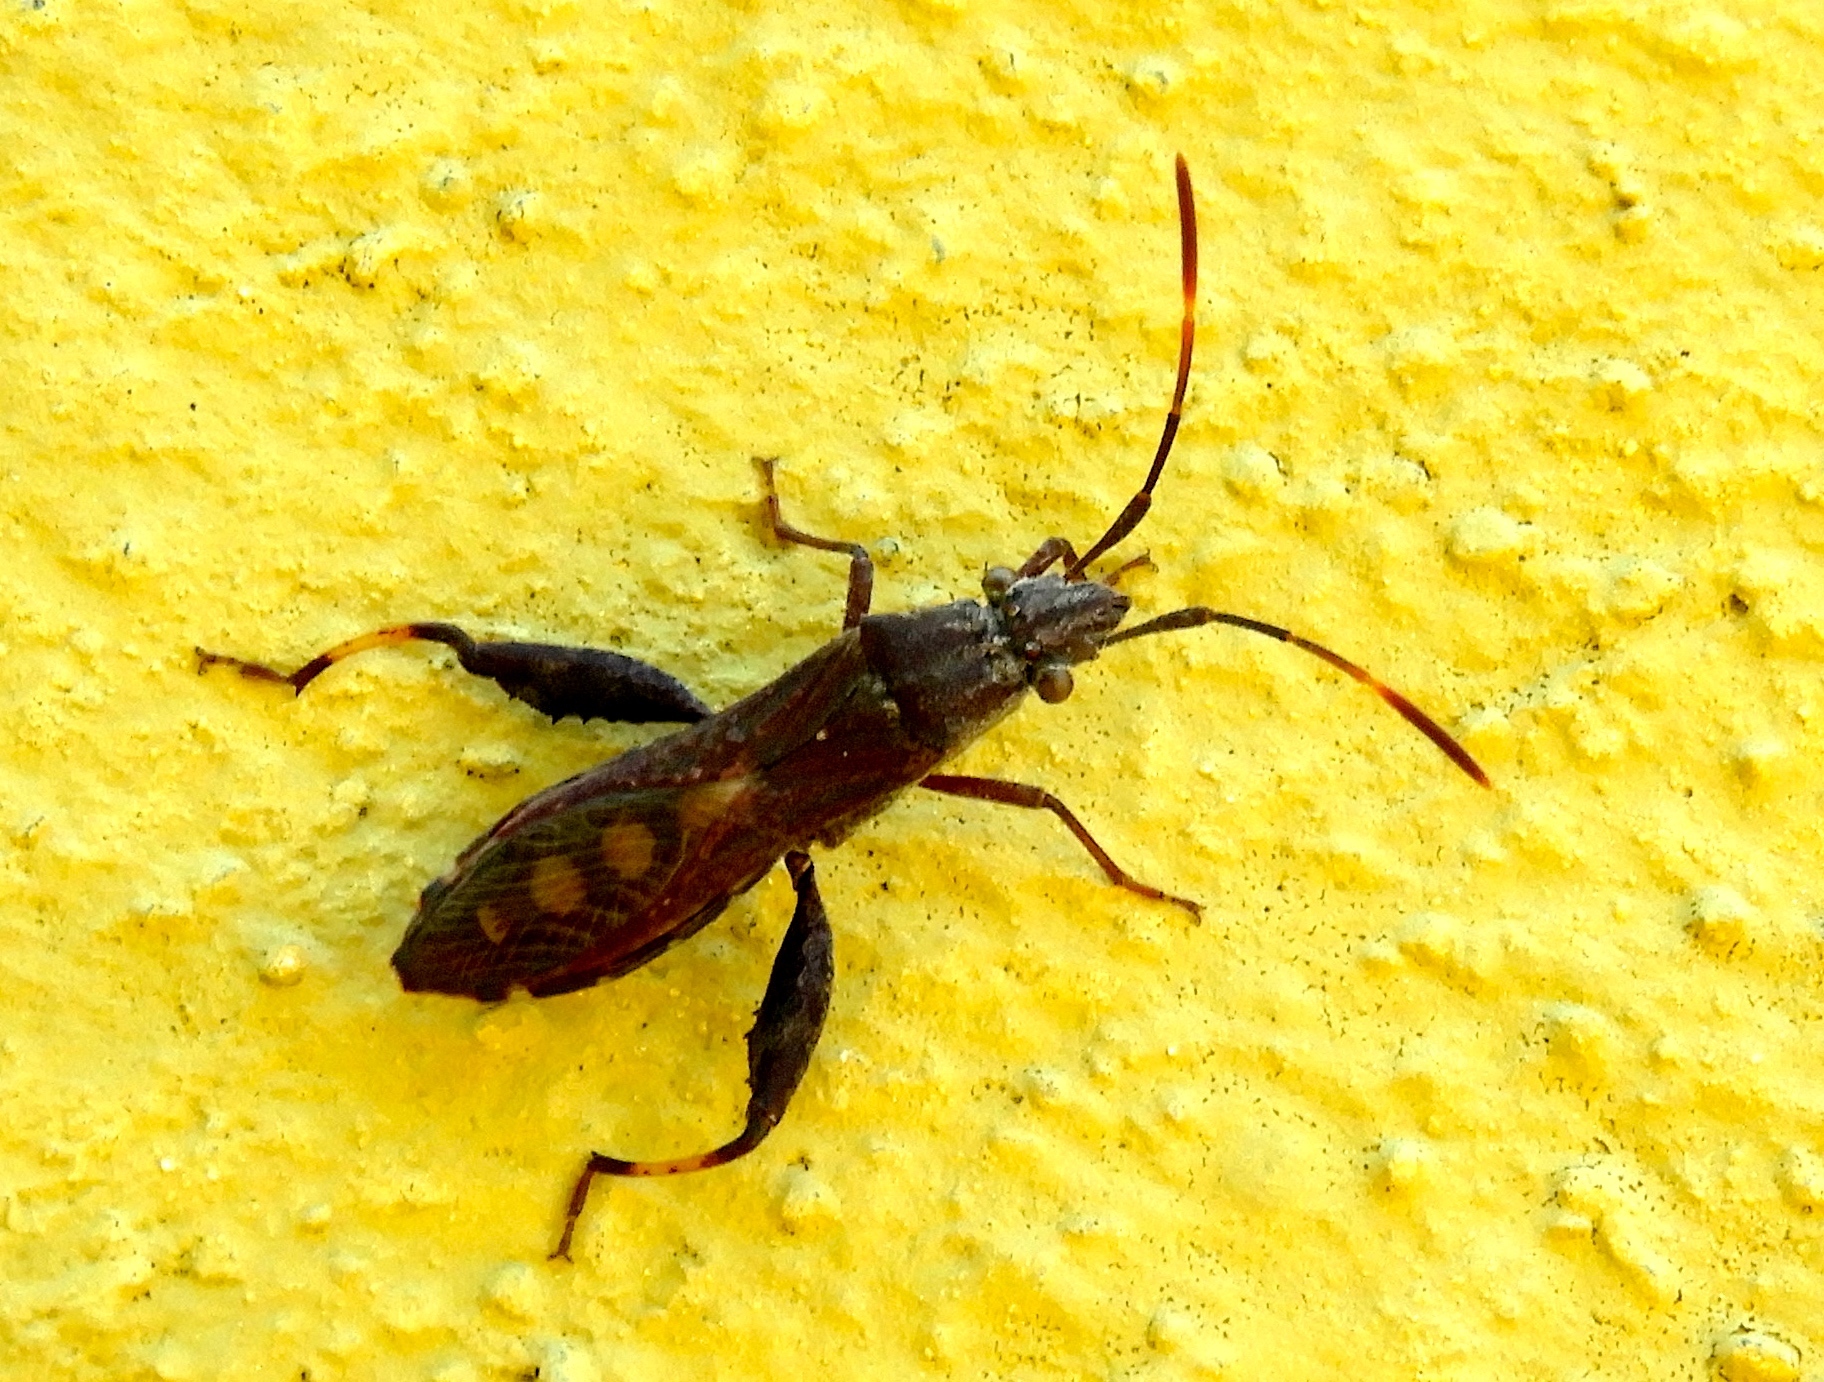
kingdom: Animalia
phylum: Arthropoda
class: Insecta
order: Hemiptera
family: Alydidae
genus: Apidaurus
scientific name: Apidaurus conspersus
